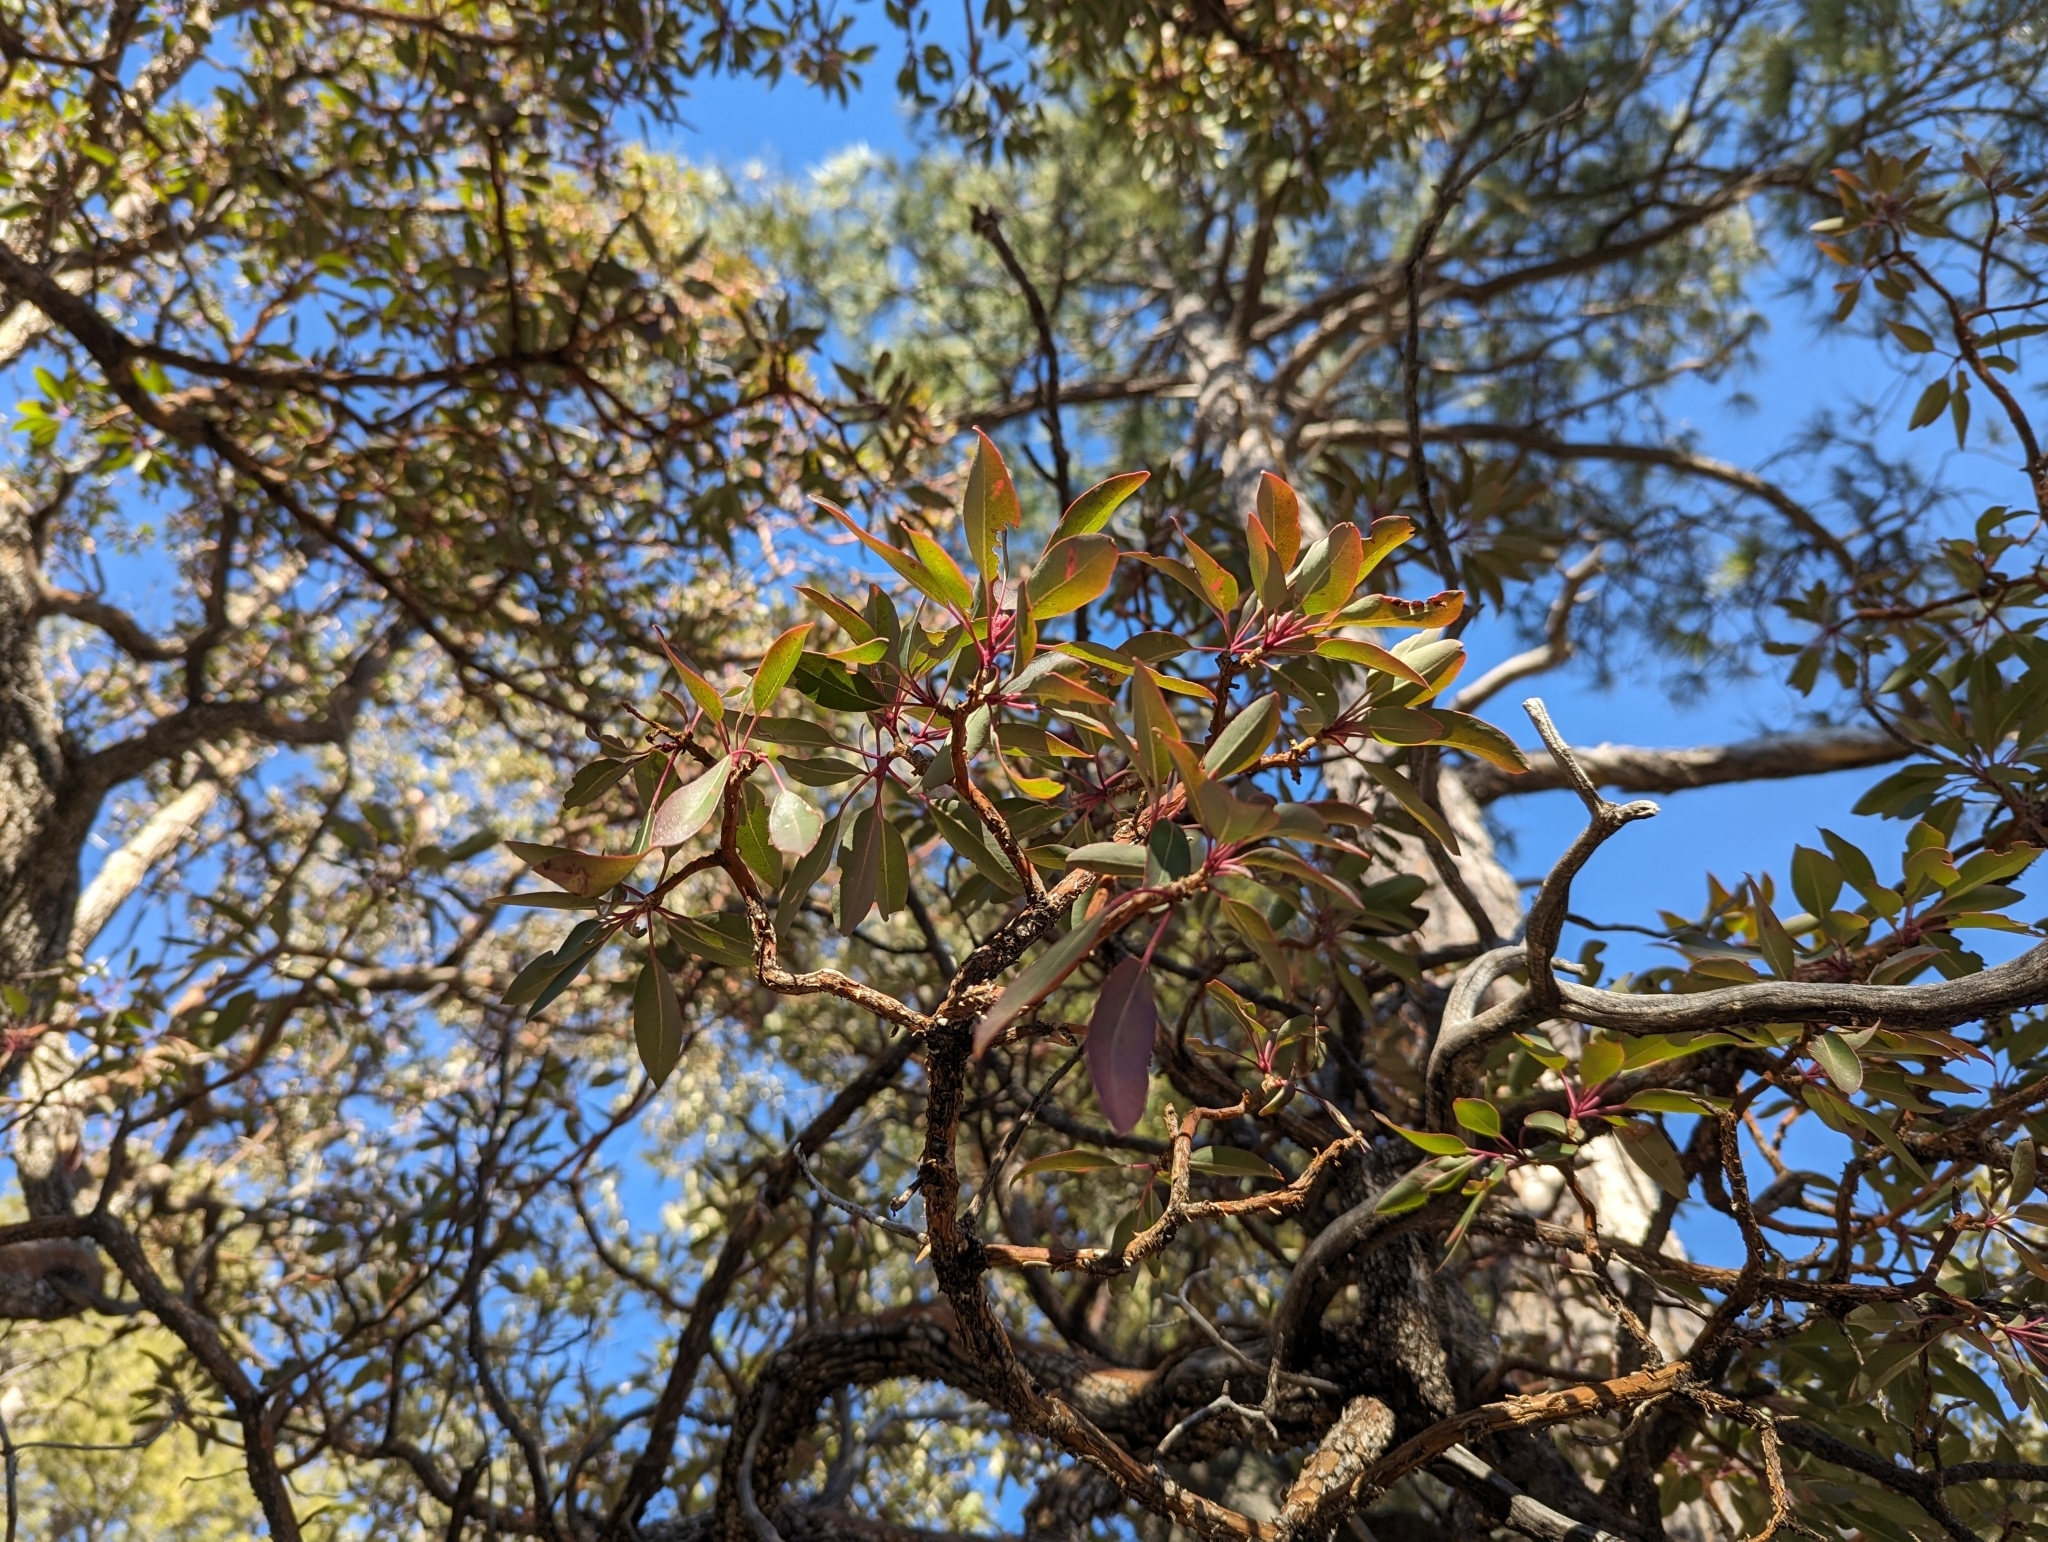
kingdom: Plantae
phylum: Tracheophyta
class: Magnoliopsida
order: Ericales
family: Ericaceae
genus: Arbutus
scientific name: Arbutus arizonica
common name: Arizona madrone
